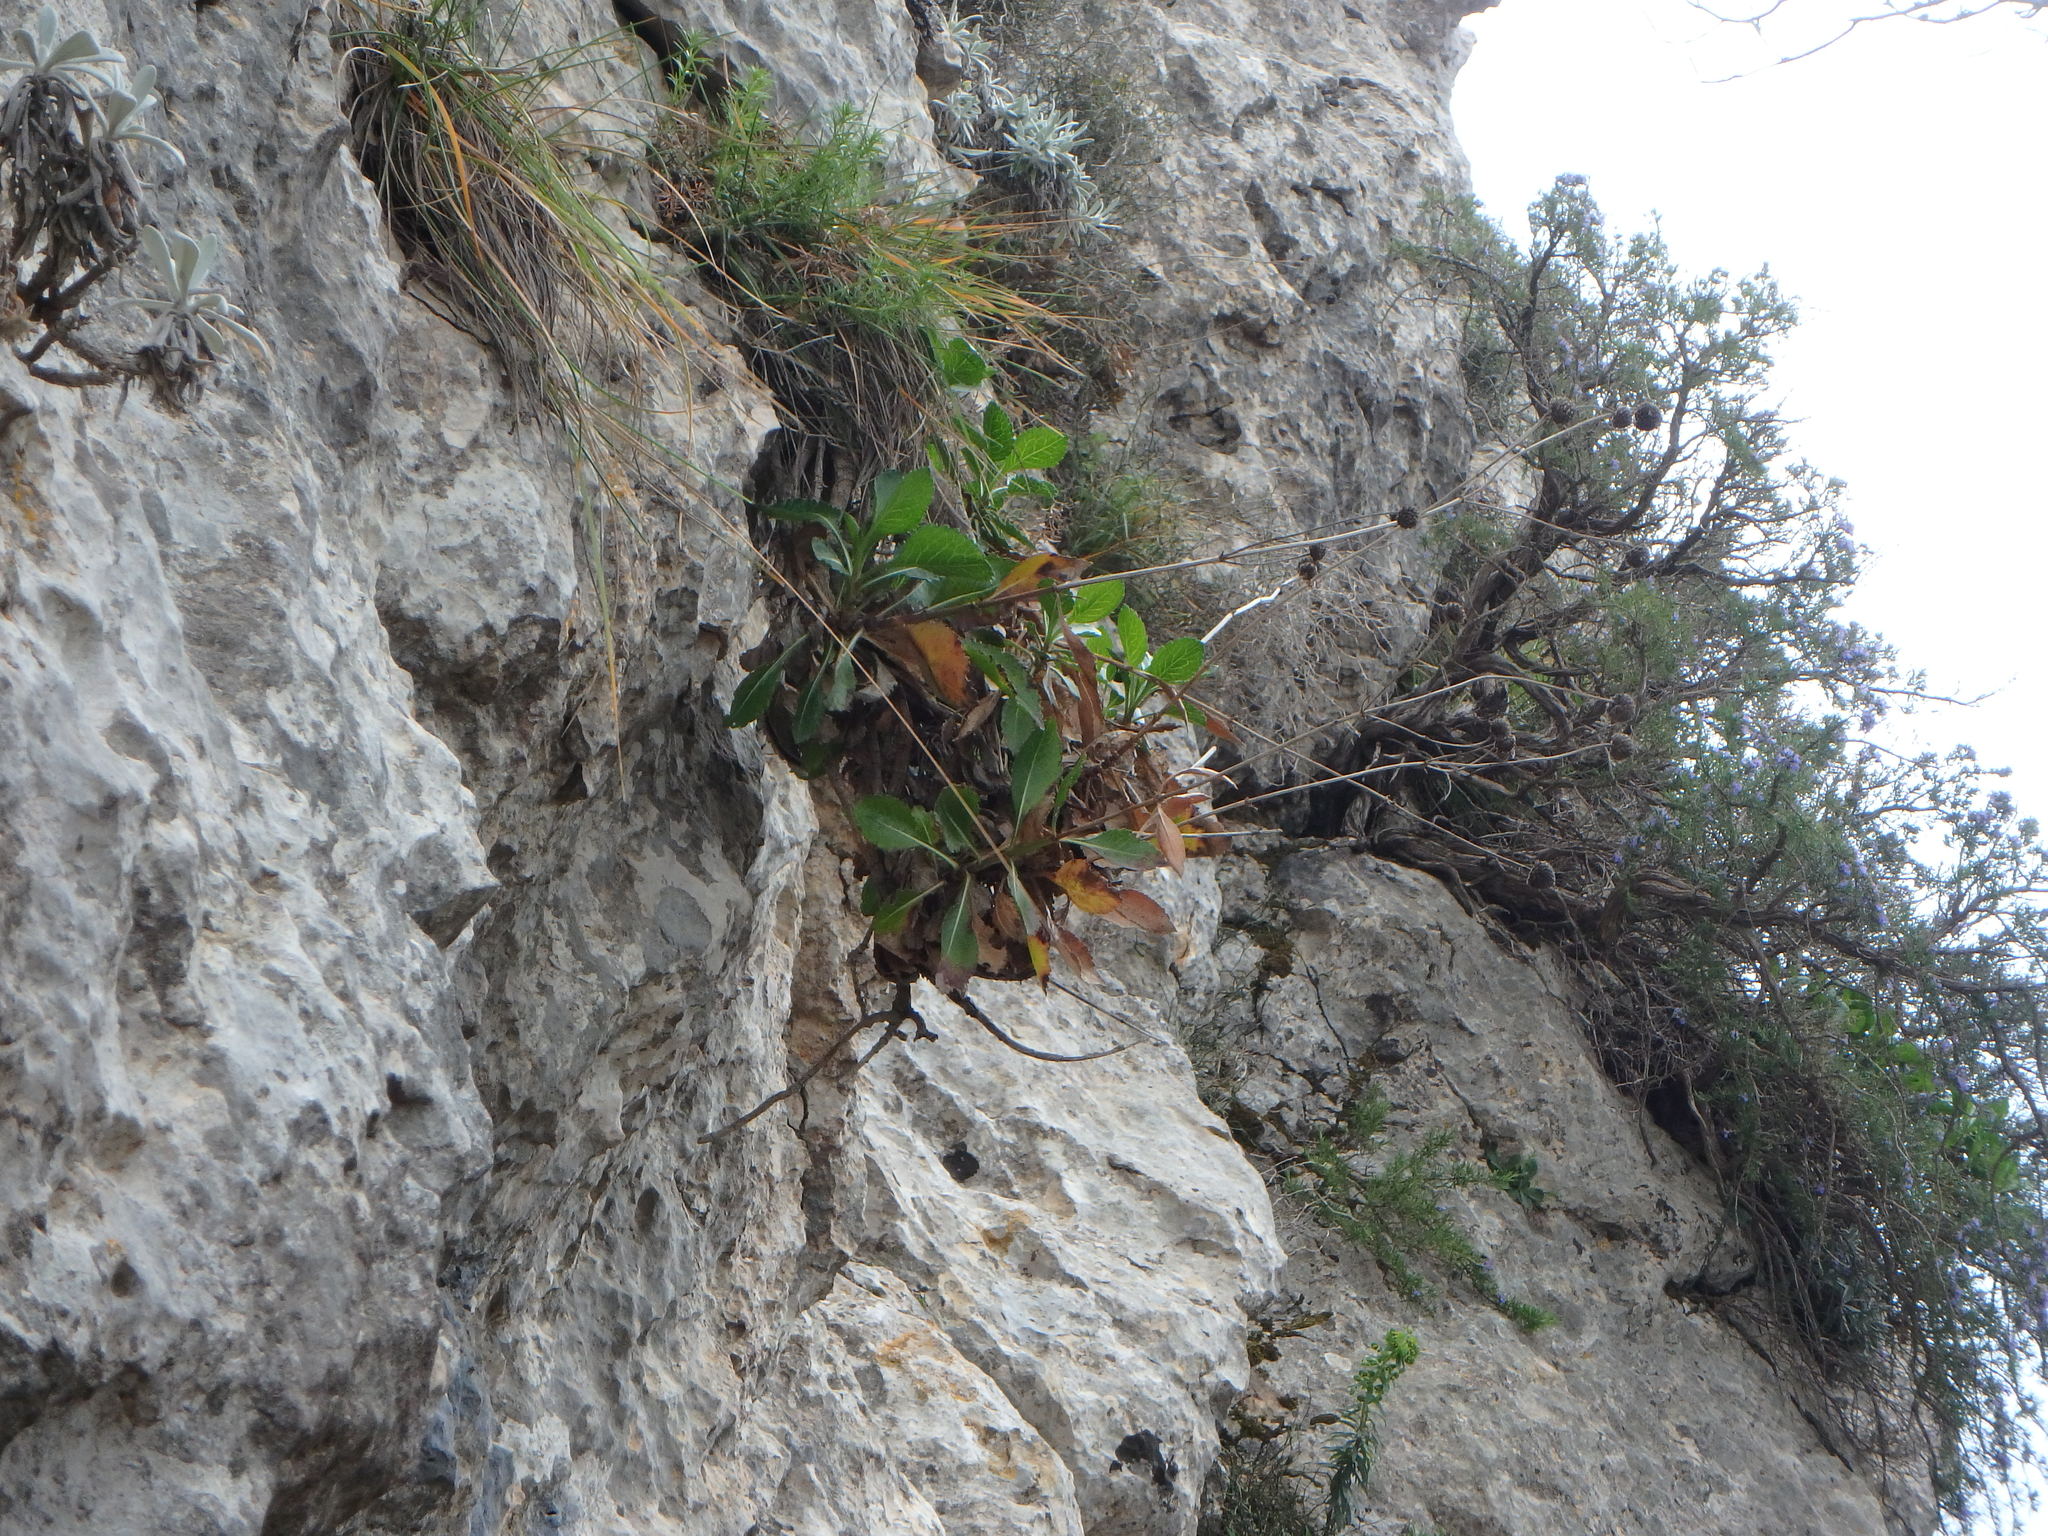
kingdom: Plantae
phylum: Tracheophyta
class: Magnoliopsida
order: Dipsacales
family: Caprifoliaceae
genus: Cephalaria
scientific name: Cephalaria squamiflora
